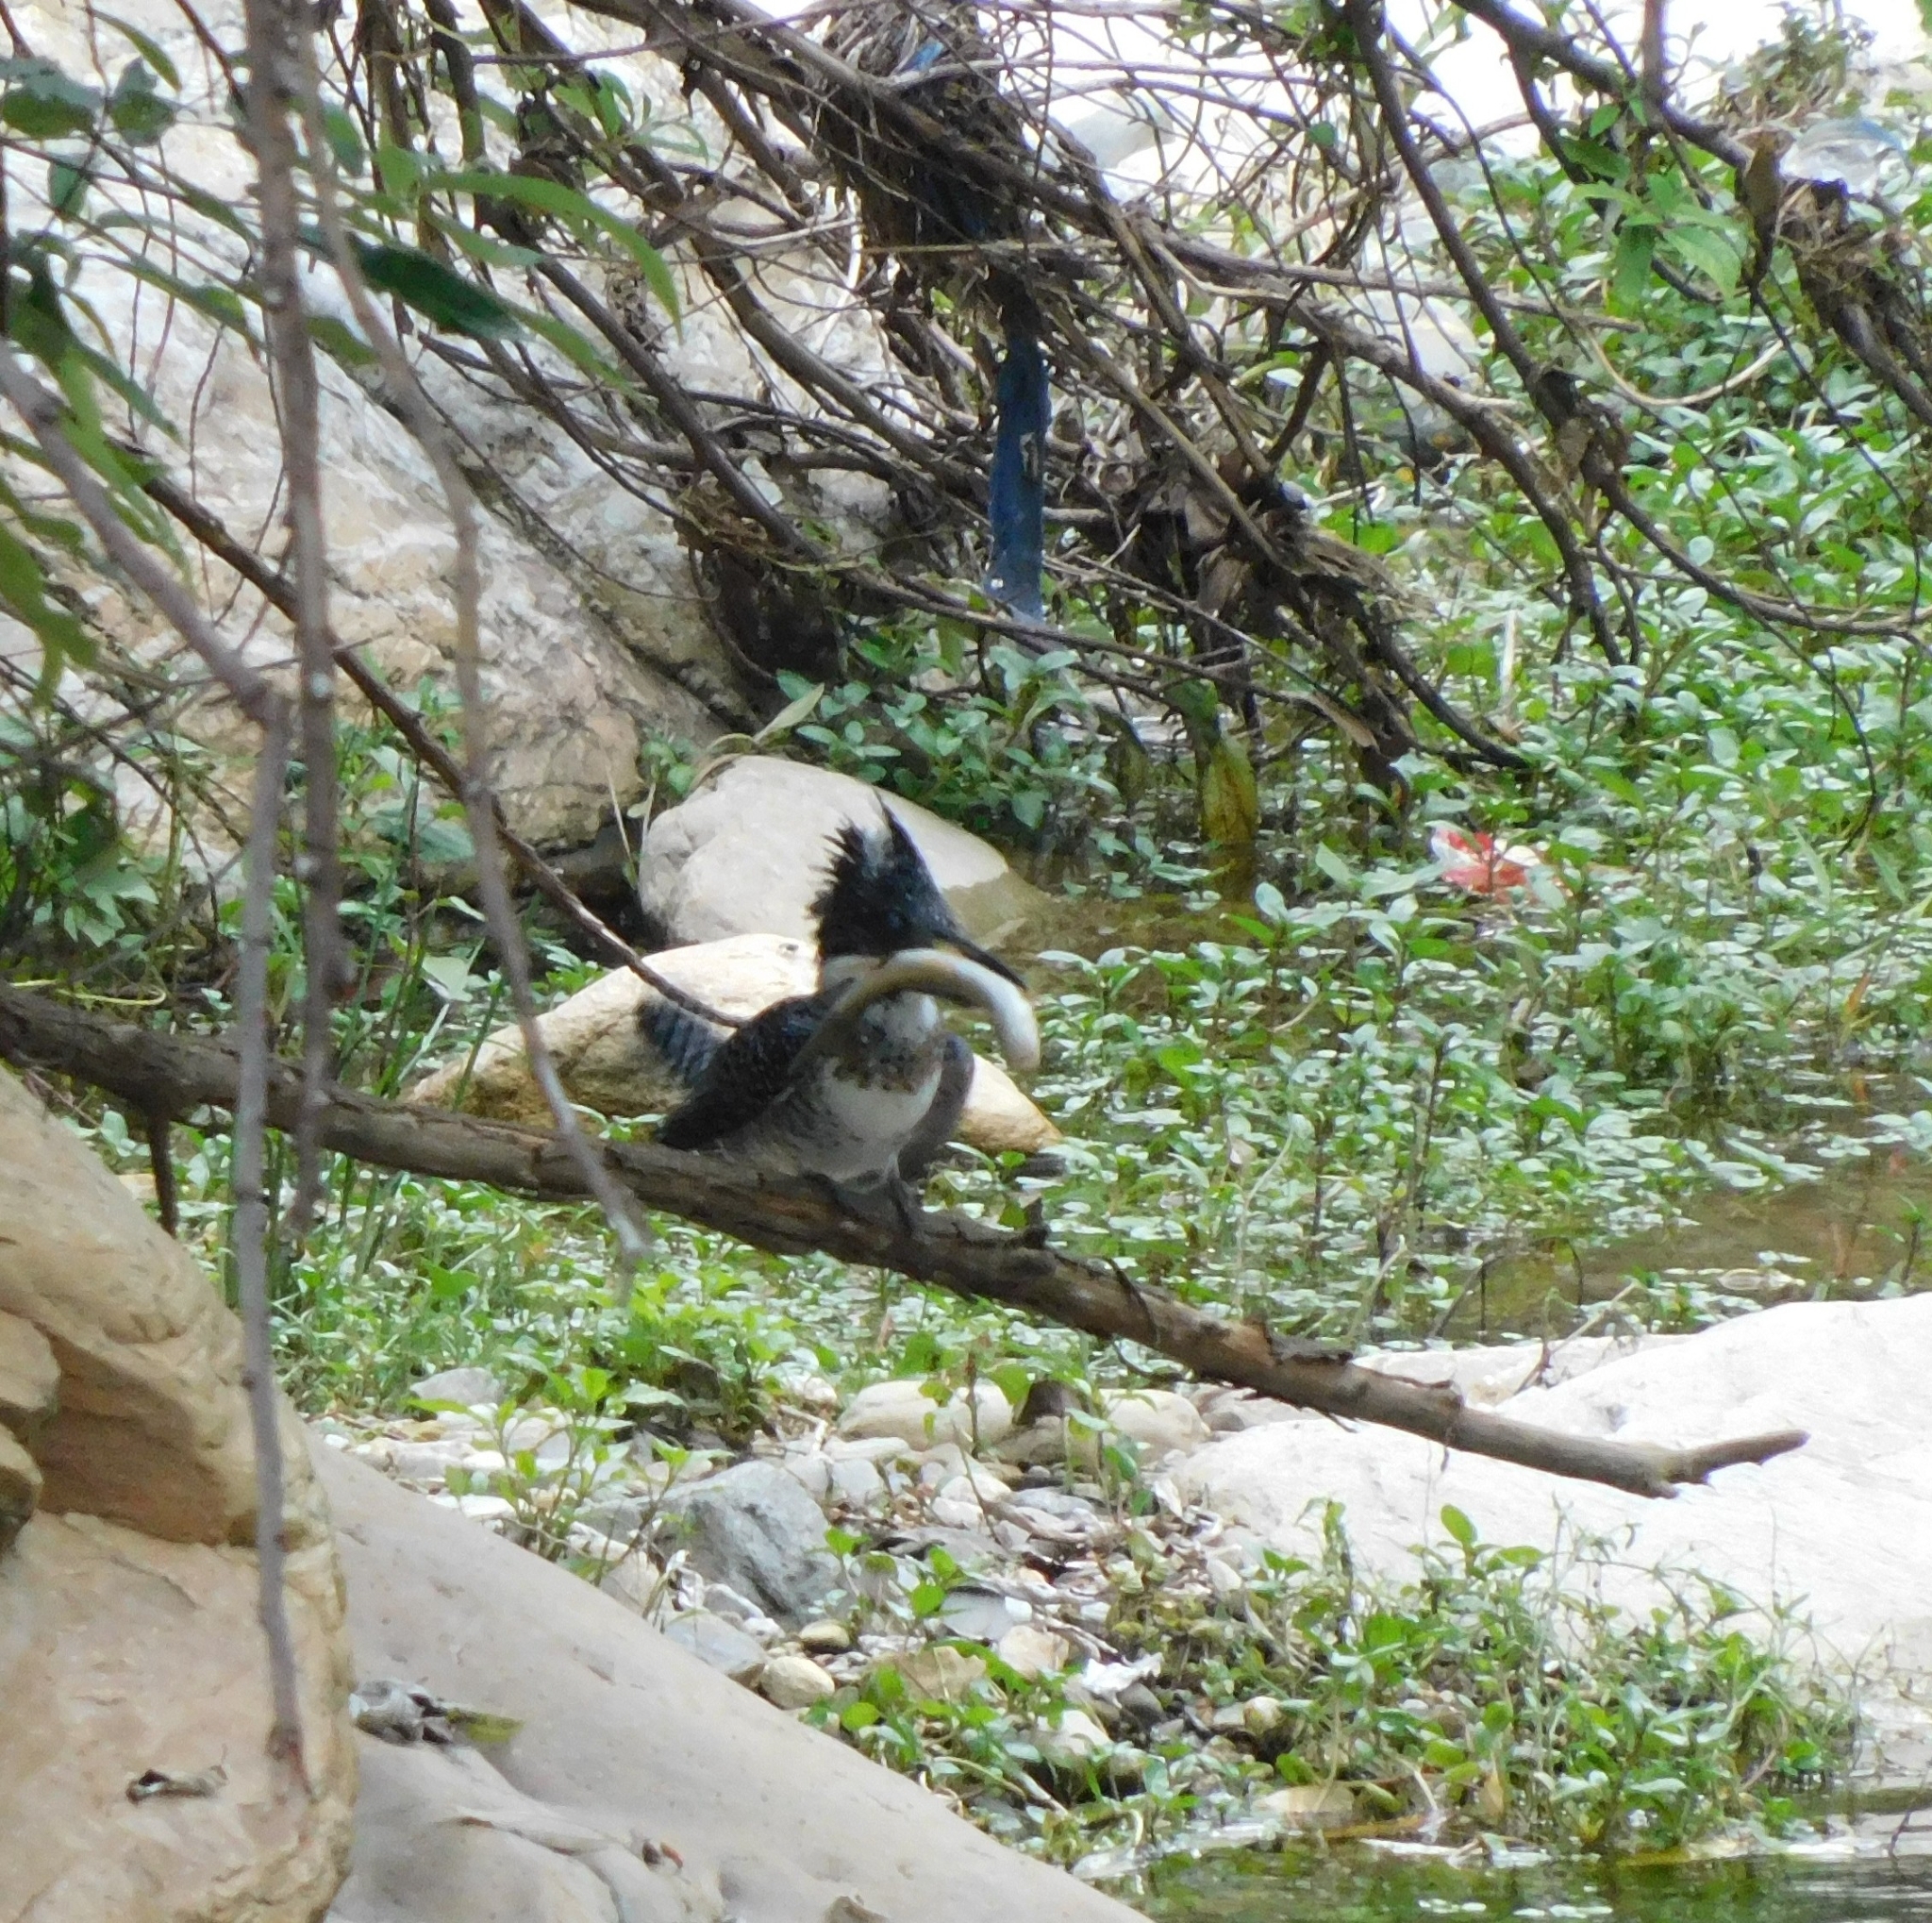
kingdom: Animalia
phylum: Chordata
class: Aves
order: Coraciiformes
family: Alcedinidae
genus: Megaceryle
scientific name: Megaceryle lugubris
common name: Crested kingfisher
